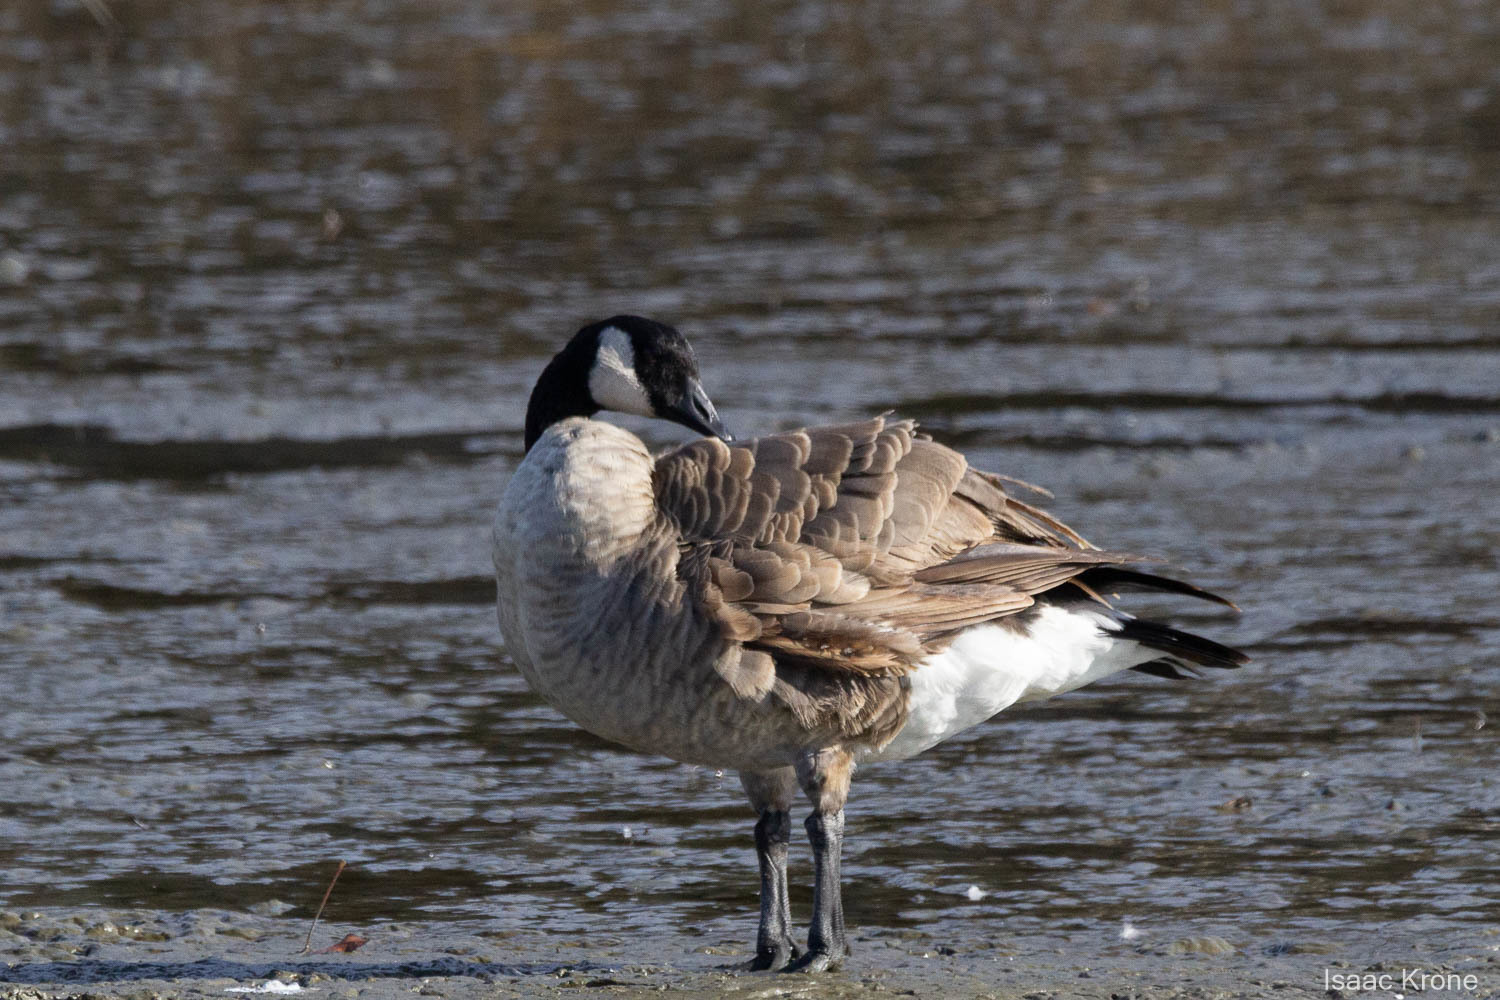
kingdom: Animalia
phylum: Chordata
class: Aves
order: Anseriformes
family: Anatidae
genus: Branta
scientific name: Branta canadensis
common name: Canada goose
